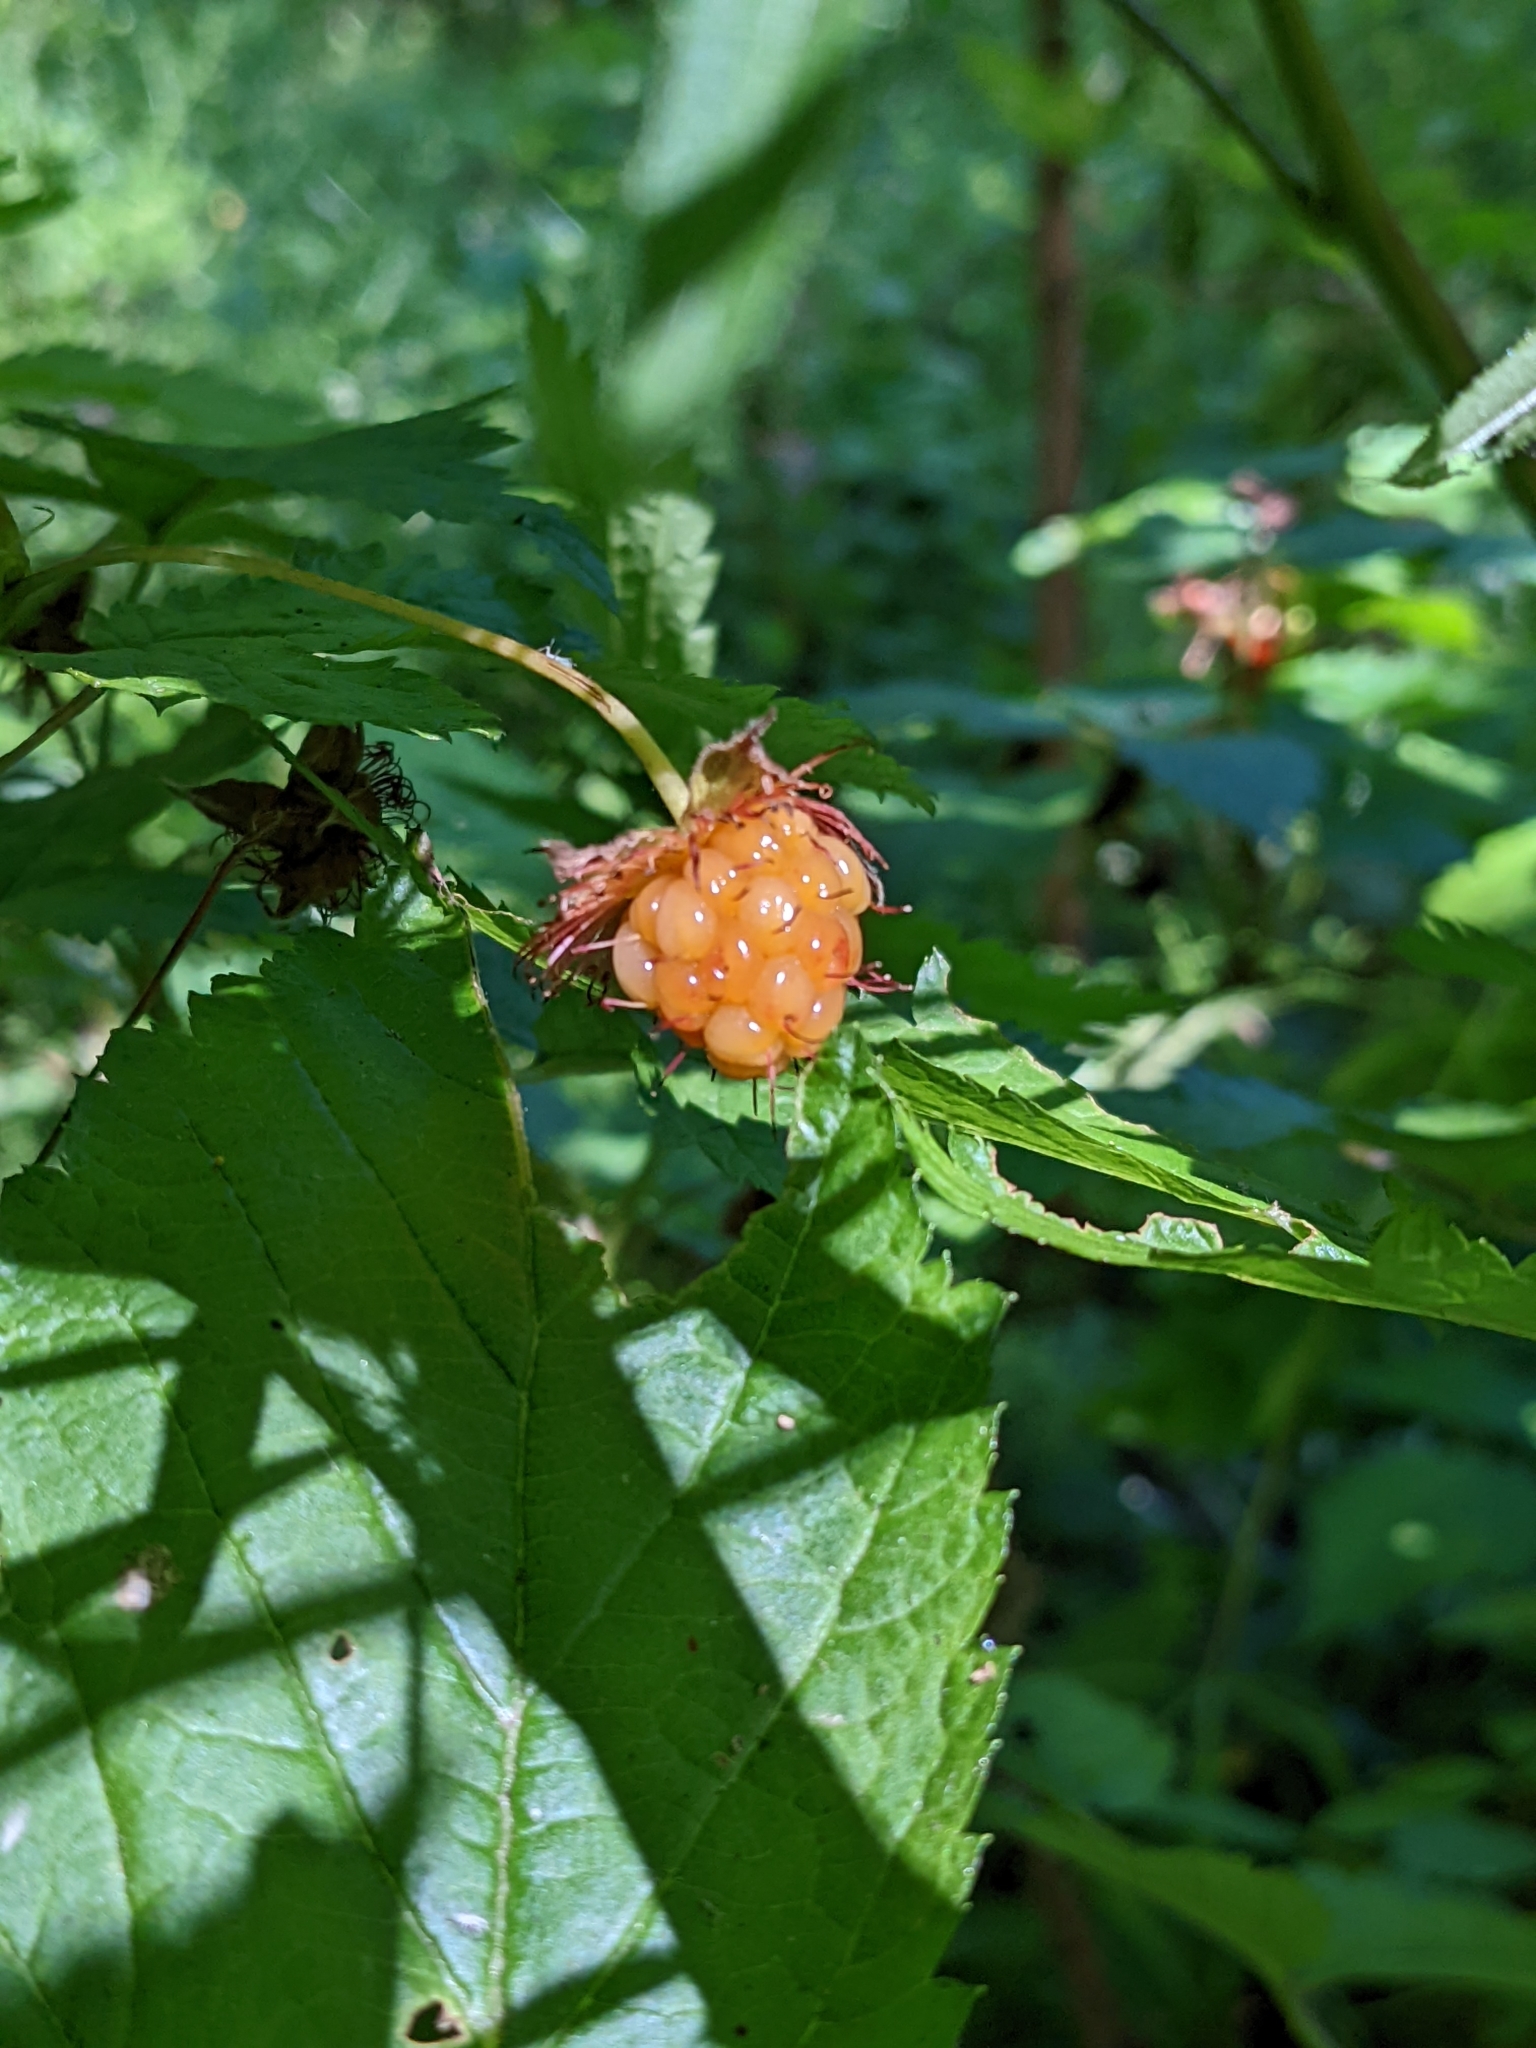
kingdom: Plantae
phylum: Tracheophyta
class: Magnoliopsida
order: Rosales
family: Rosaceae
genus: Rubus
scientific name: Rubus spectabilis
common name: Salmonberry
